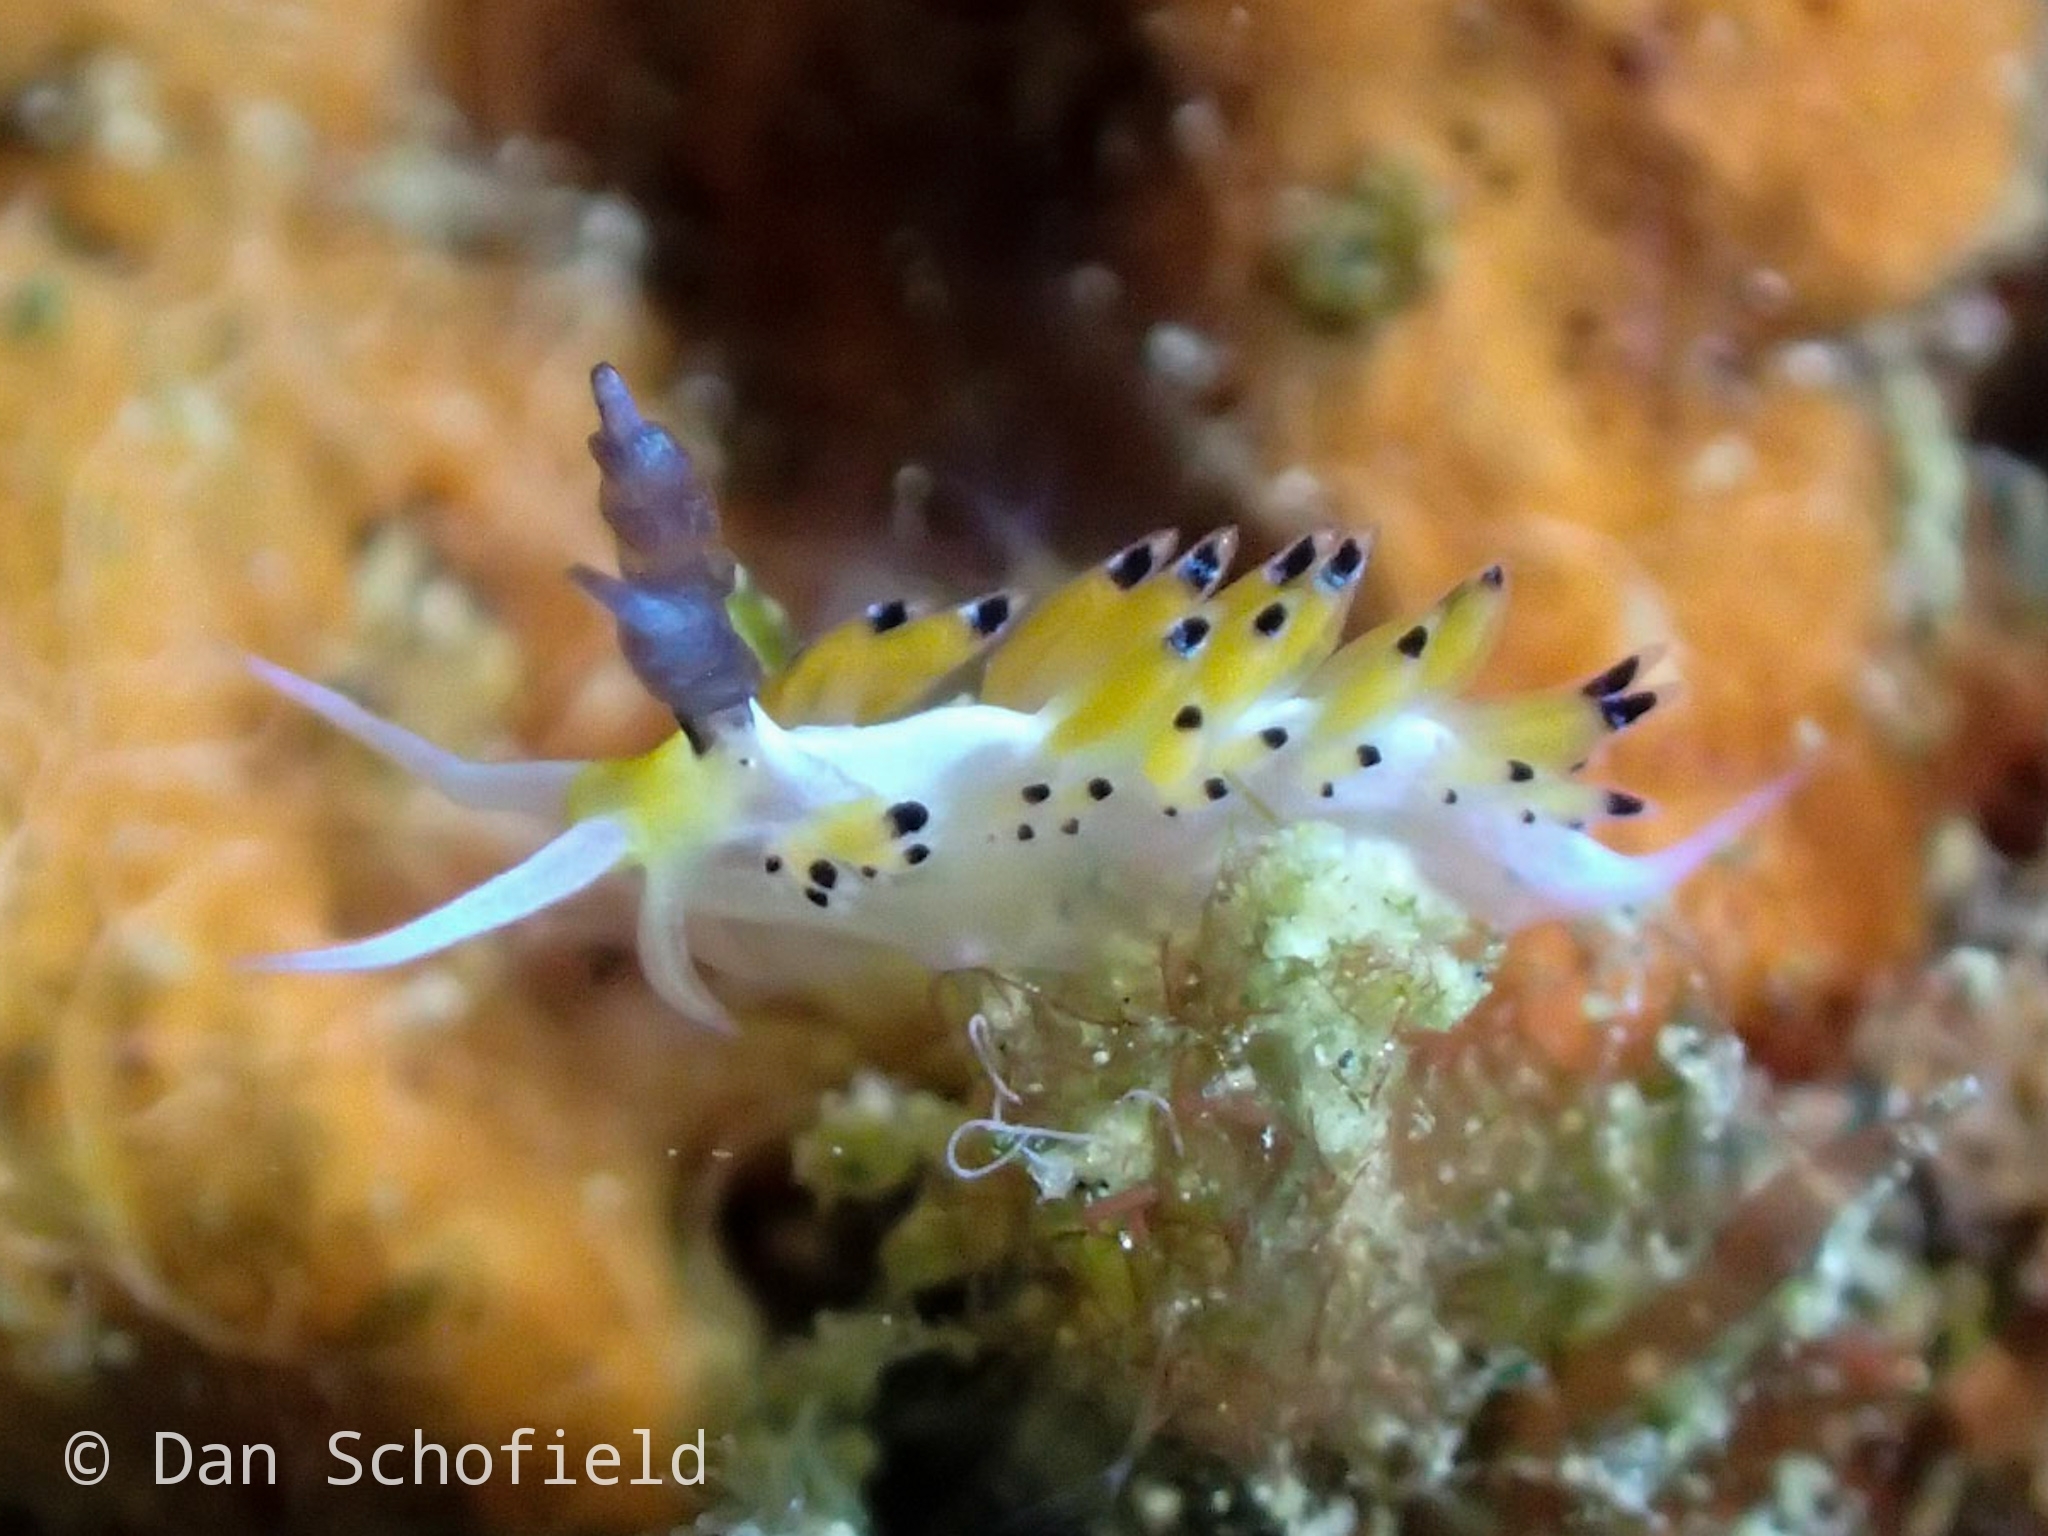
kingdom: Animalia
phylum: Mollusca
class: Gastropoda
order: Nudibranchia
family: Facelinidae
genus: Favorinus
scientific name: Favorinus tsuruganus
